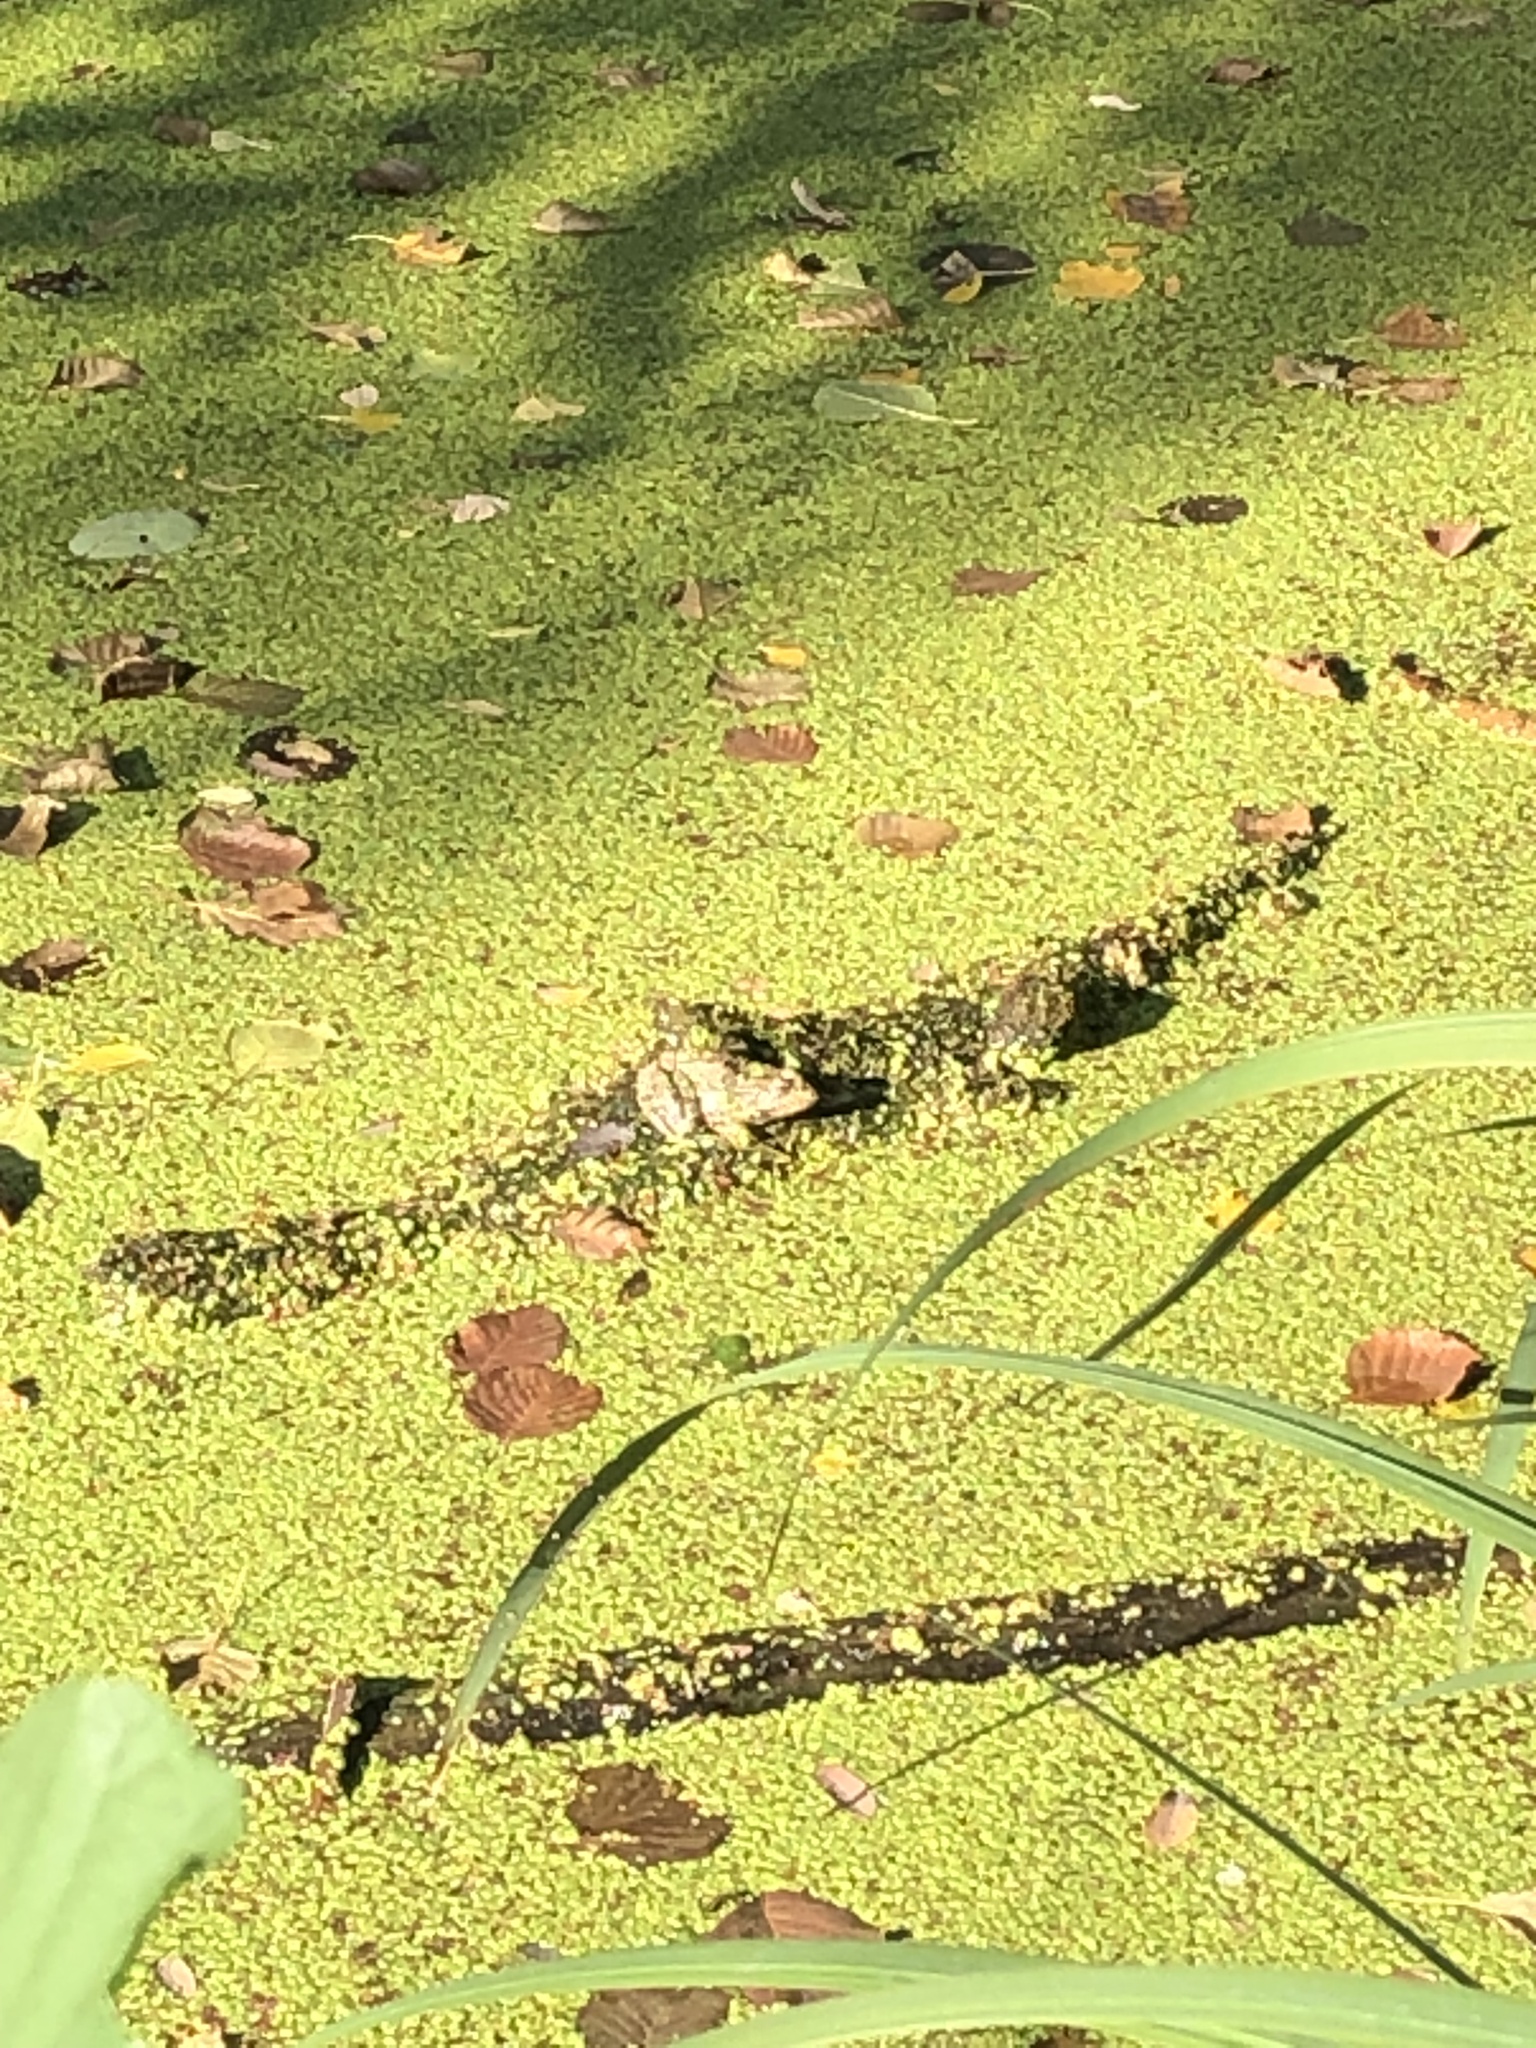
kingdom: Animalia
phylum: Chordata
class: Amphibia
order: Anura
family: Ranidae
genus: Pelophylax
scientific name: Pelophylax
